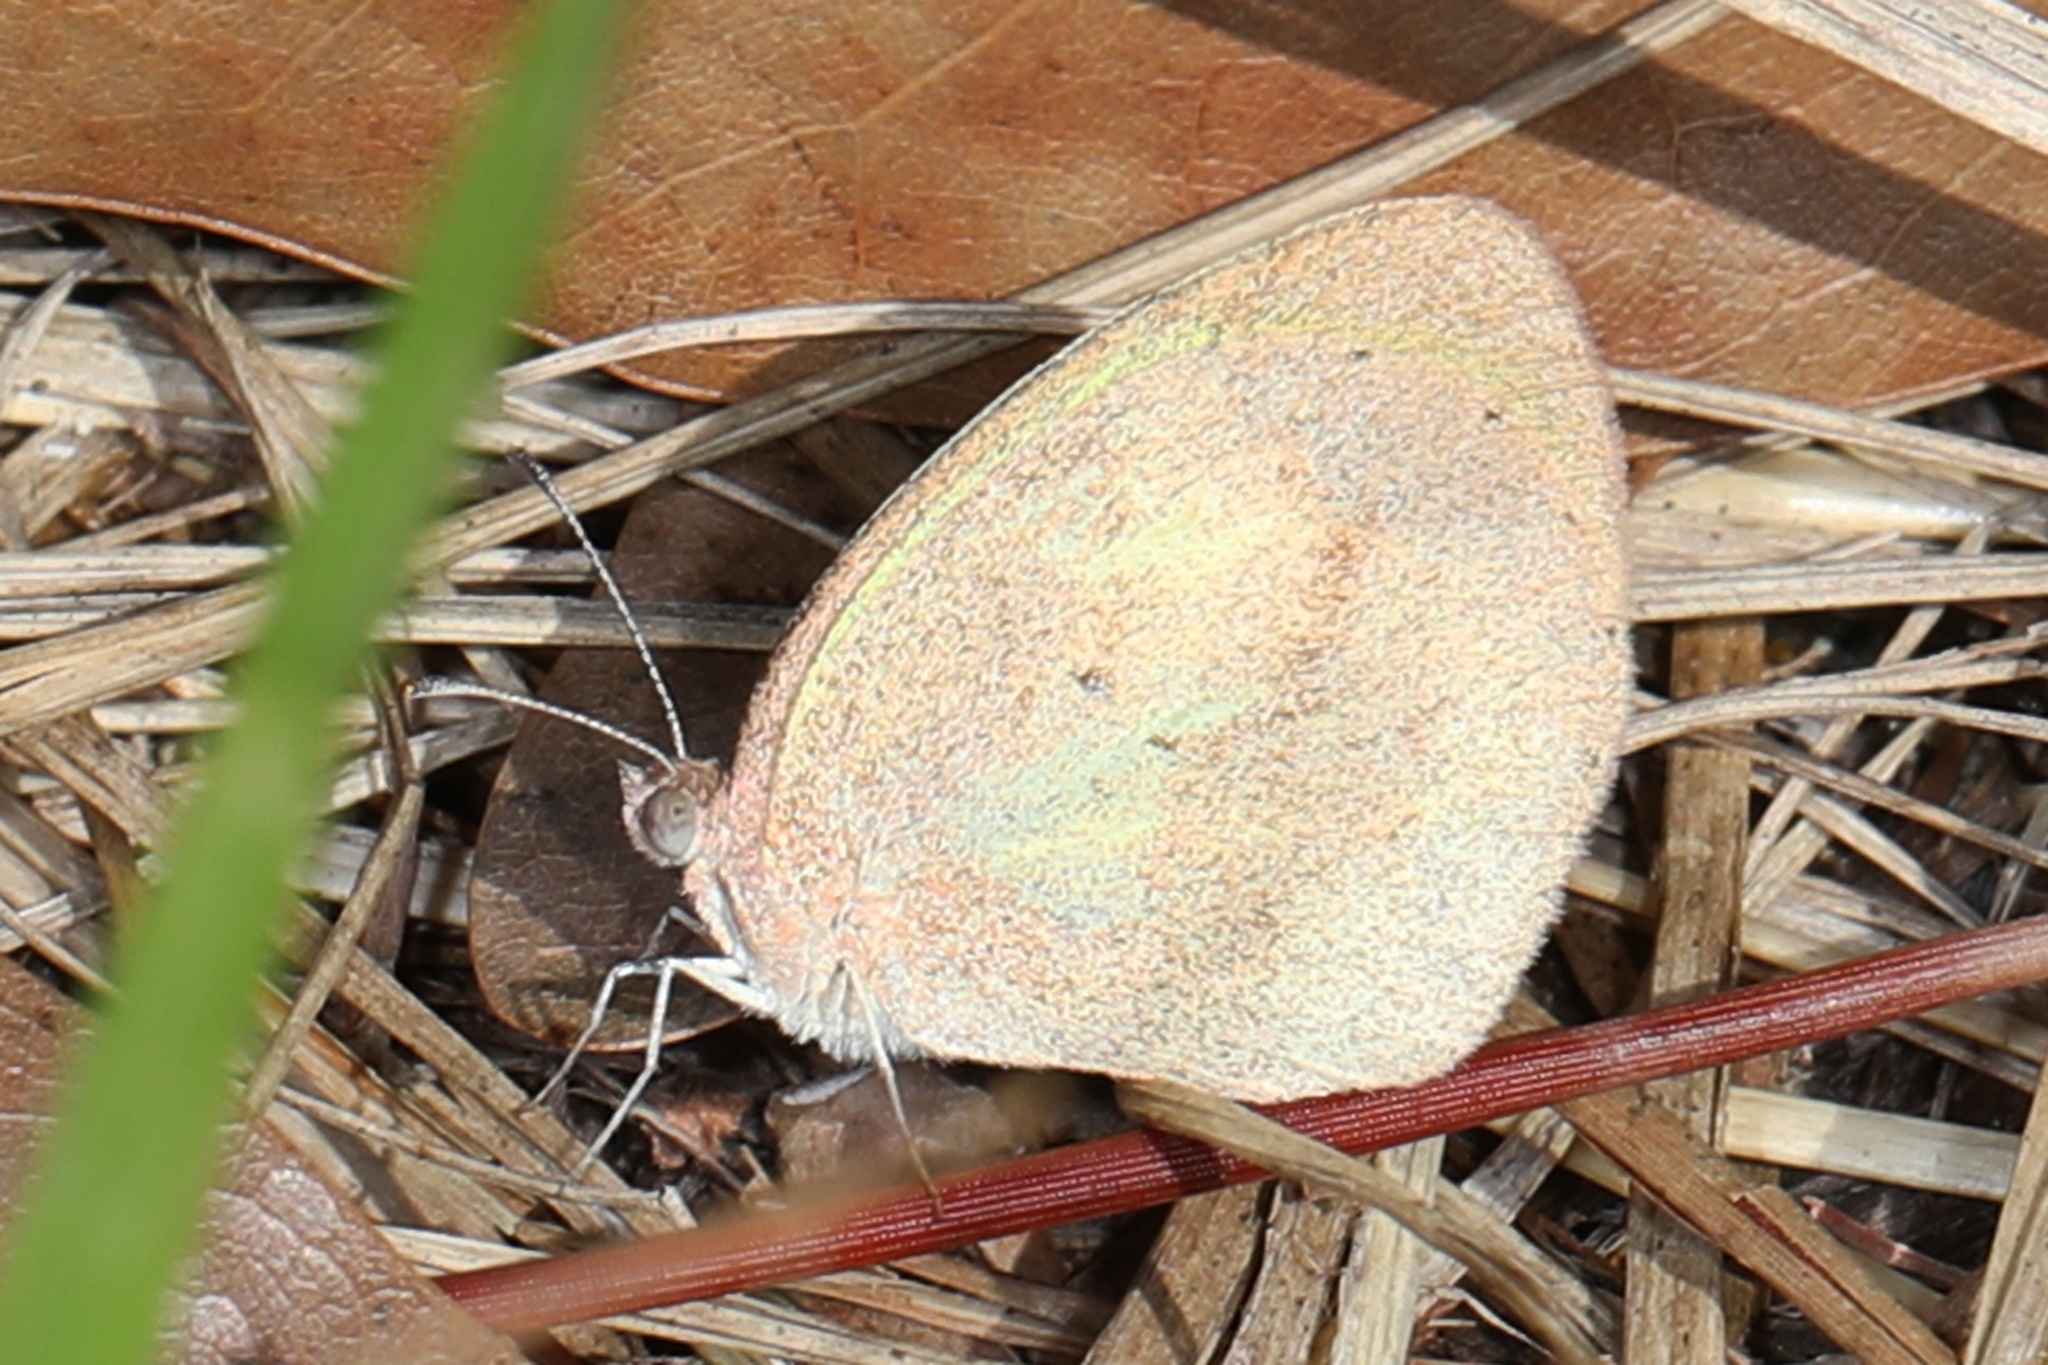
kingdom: Animalia
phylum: Arthropoda
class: Insecta
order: Lepidoptera
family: Pieridae
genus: Eurema
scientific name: Eurema daira
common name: Barred sulphur
